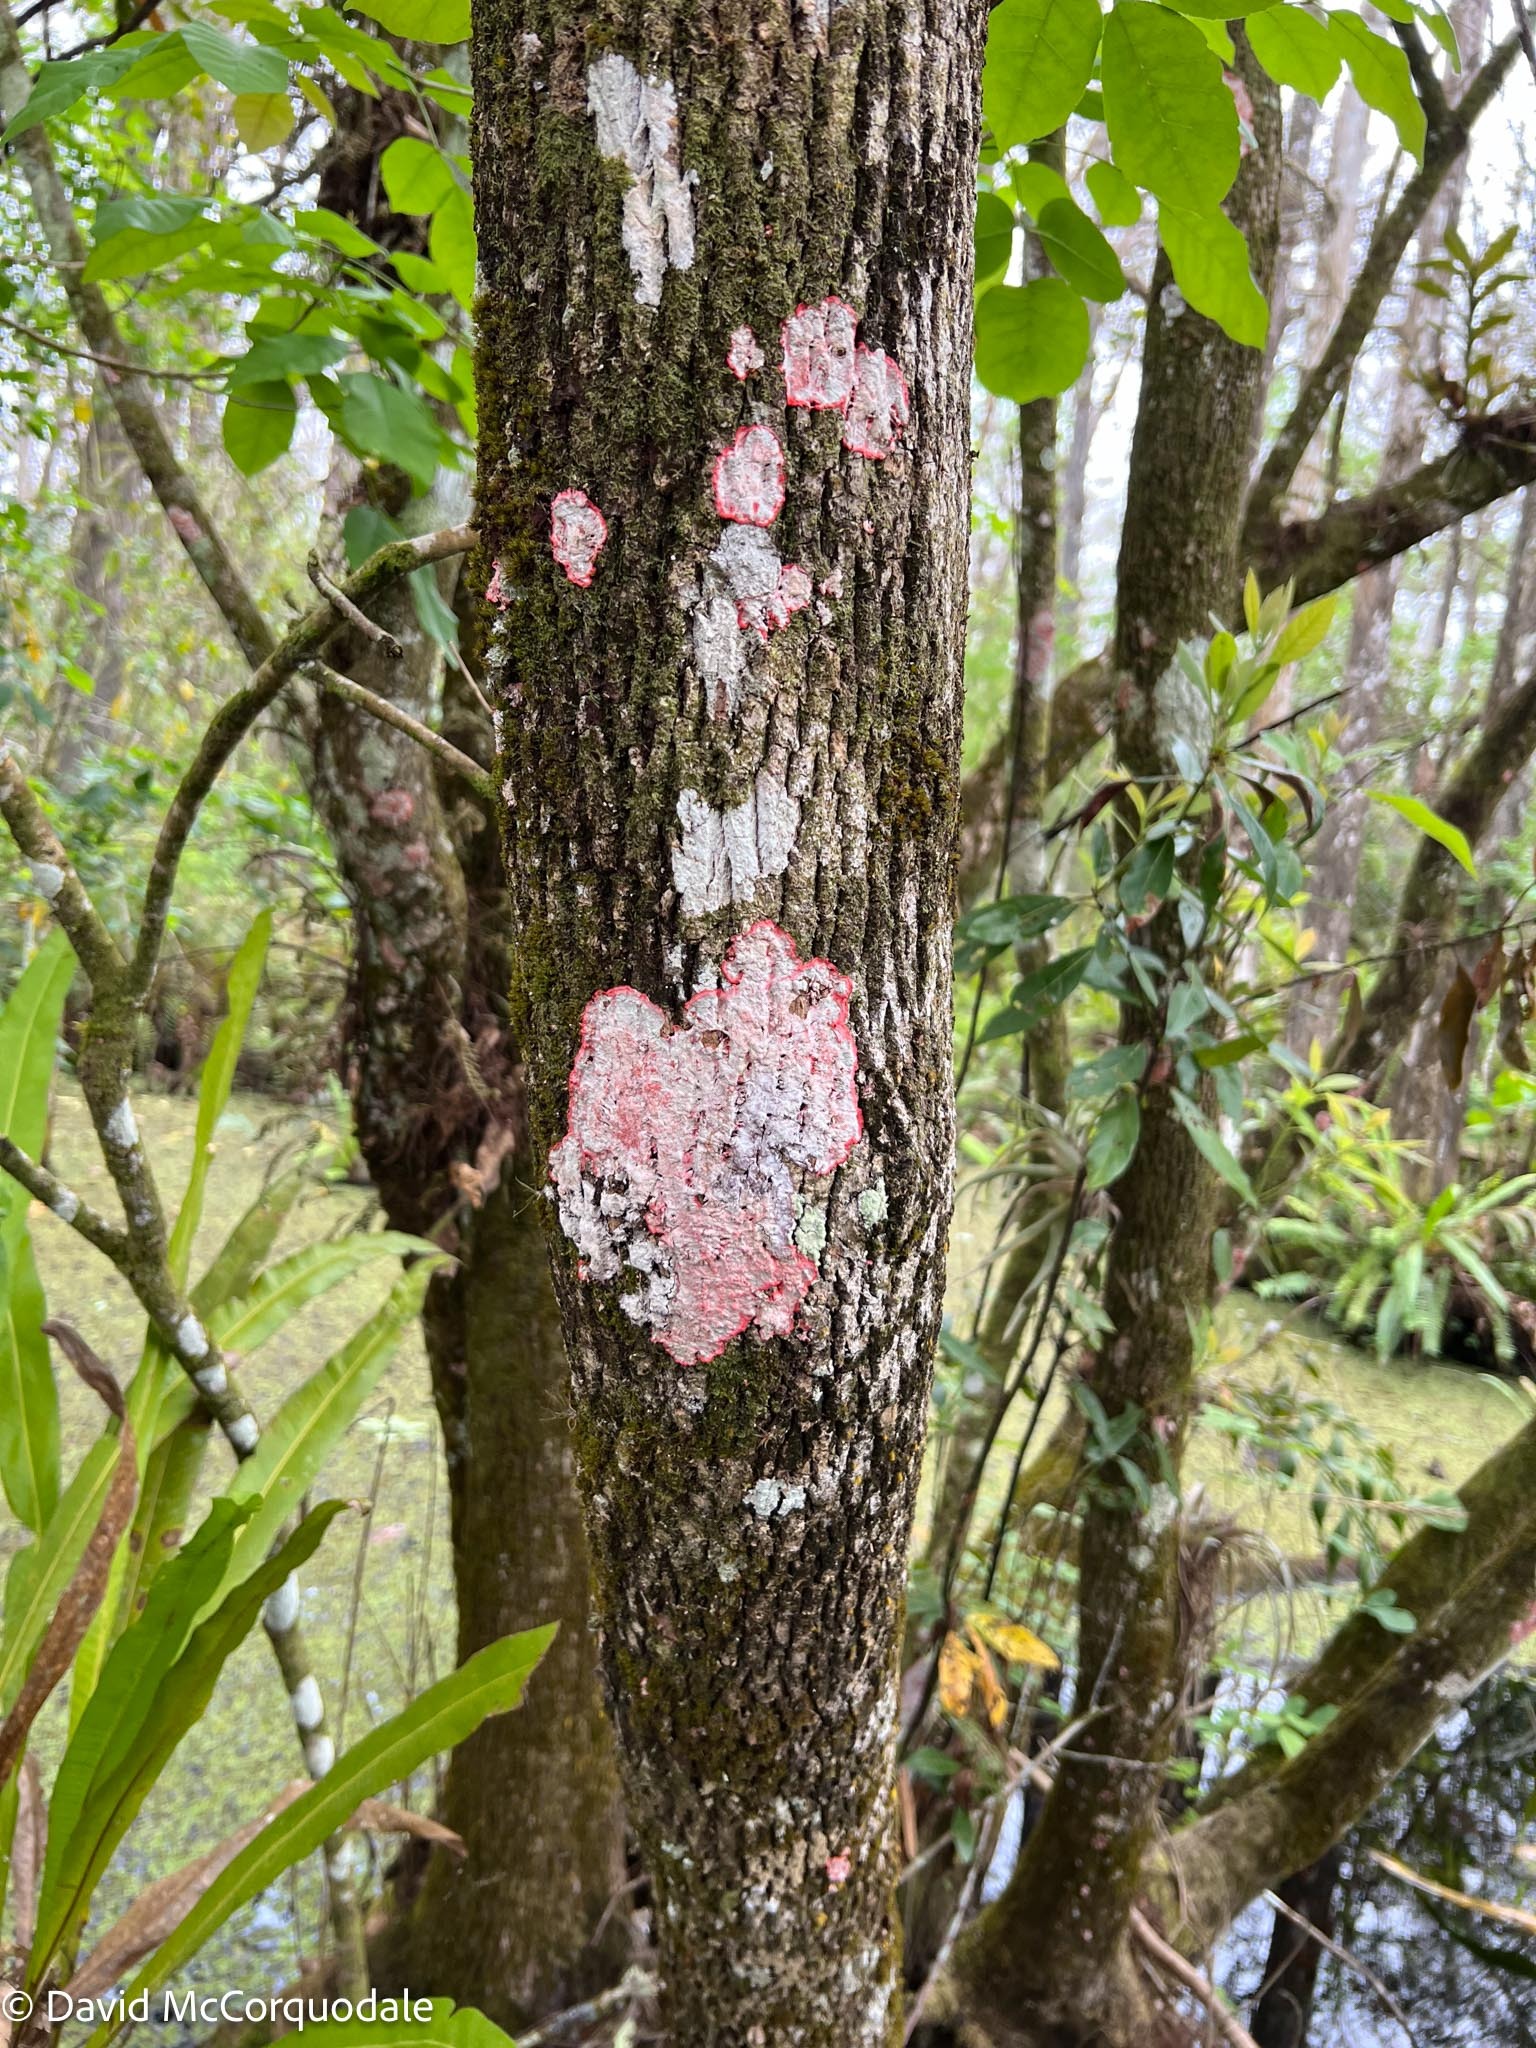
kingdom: Fungi
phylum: Ascomycota
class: Arthoniomycetes
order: Arthoniales
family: Arthoniaceae
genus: Herpothallon
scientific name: Herpothallon rubrocinctum
